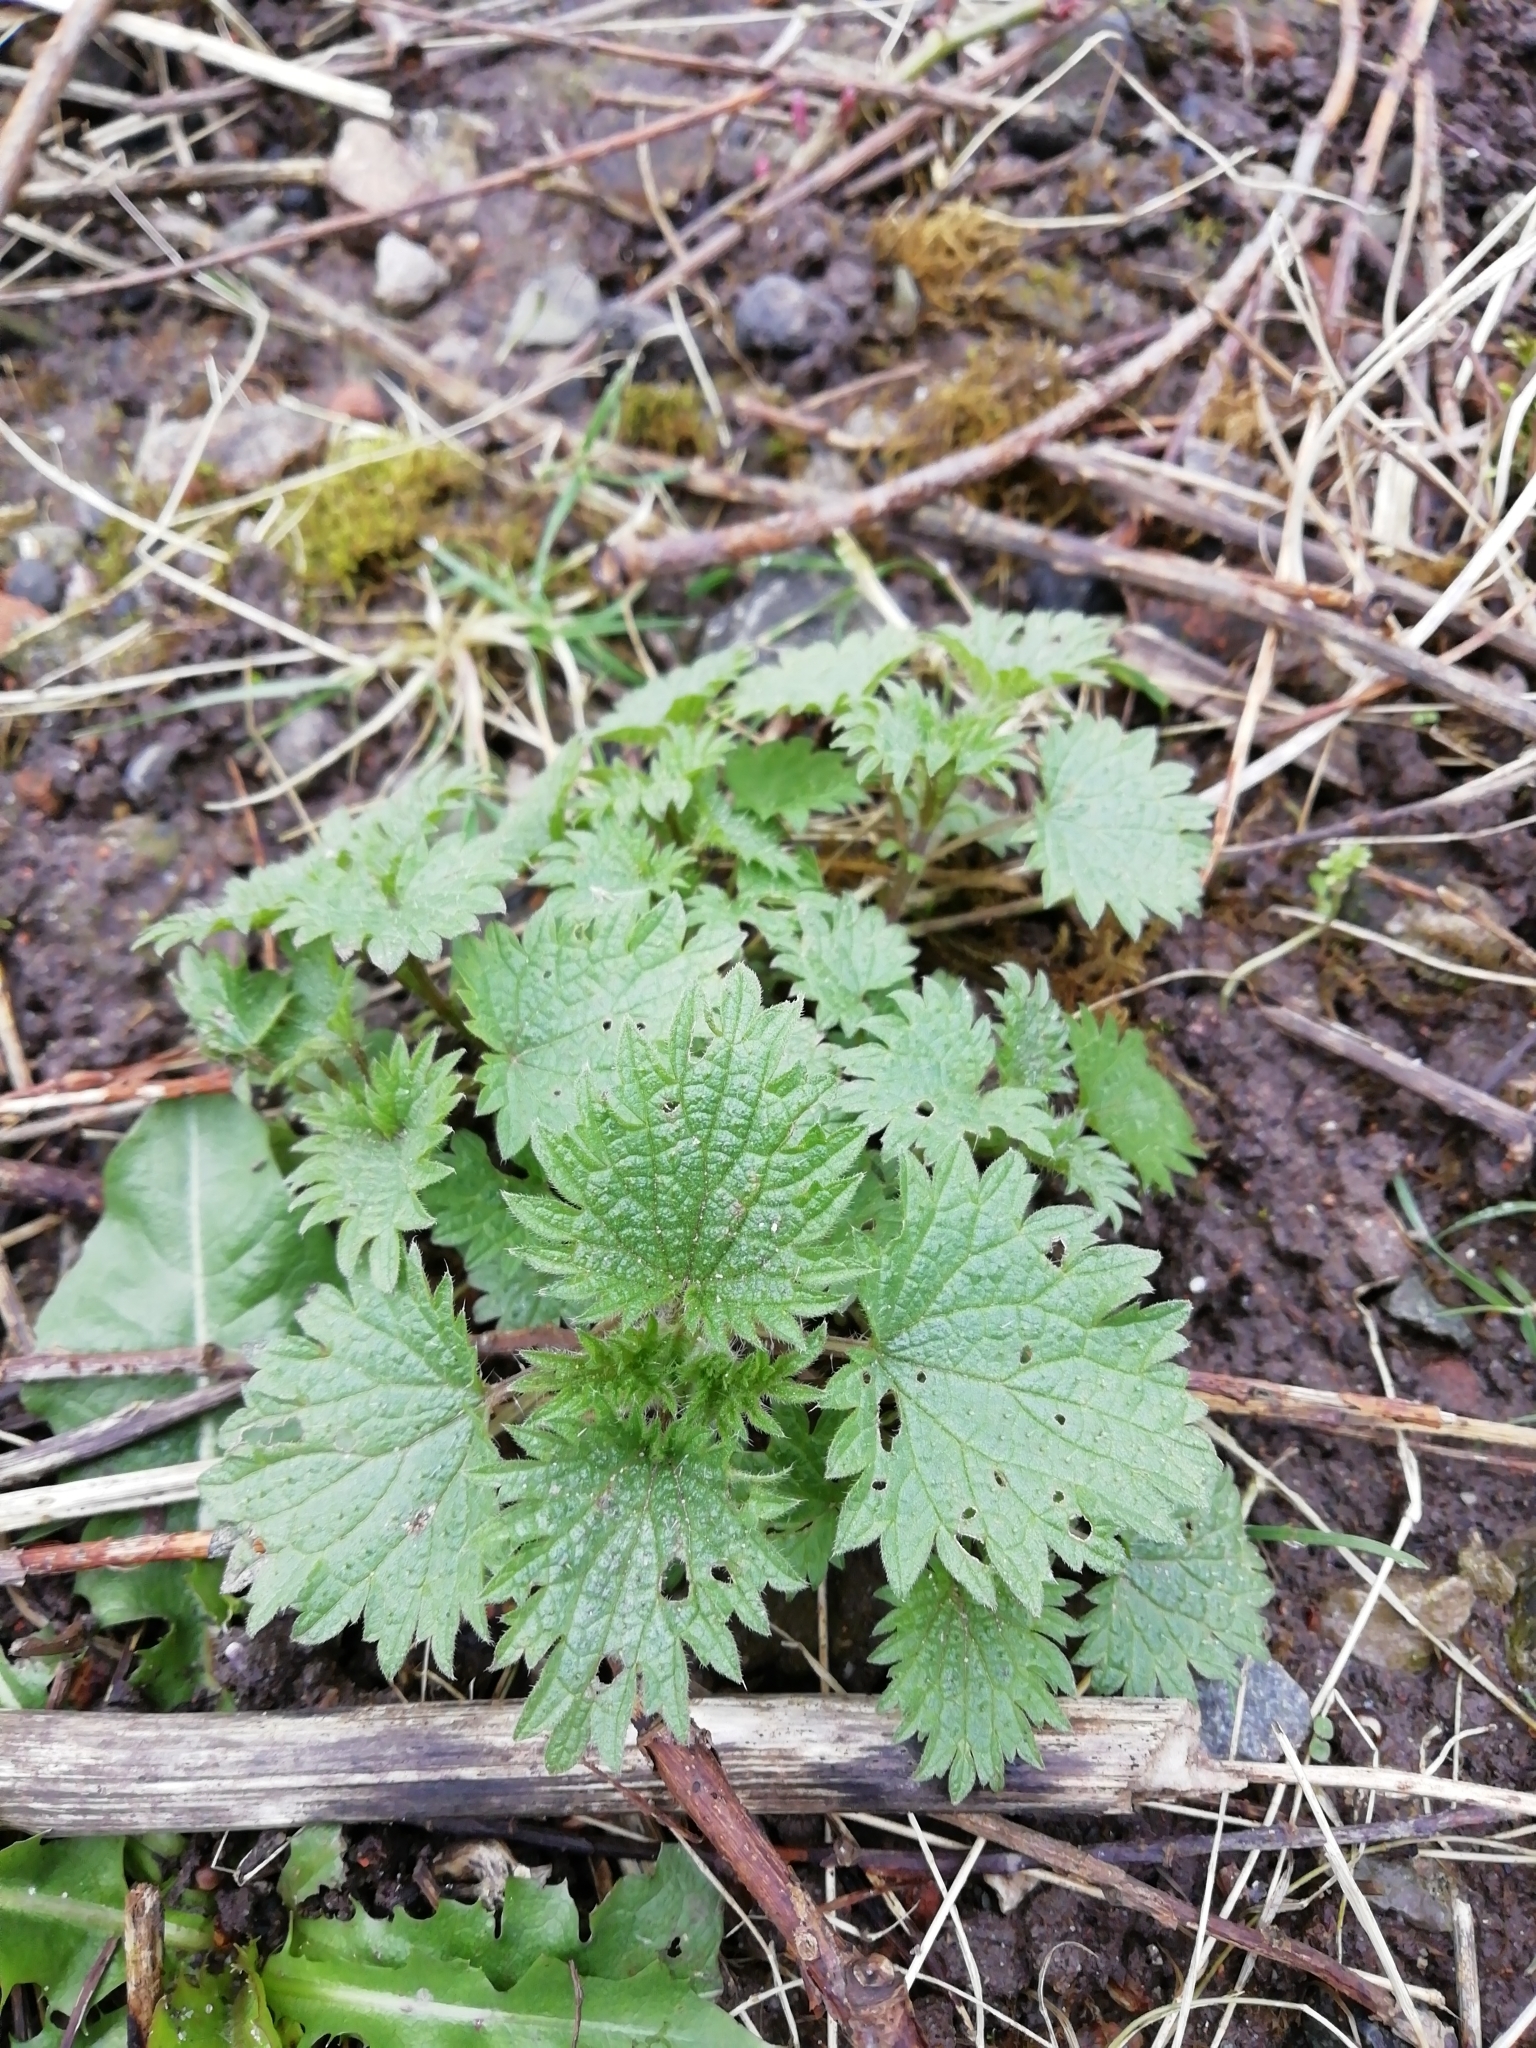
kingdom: Plantae
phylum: Tracheophyta
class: Magnoliopsida
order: Rosales
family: Urticaceae
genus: Urtica
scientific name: Urtica dioica
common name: Common nettle
